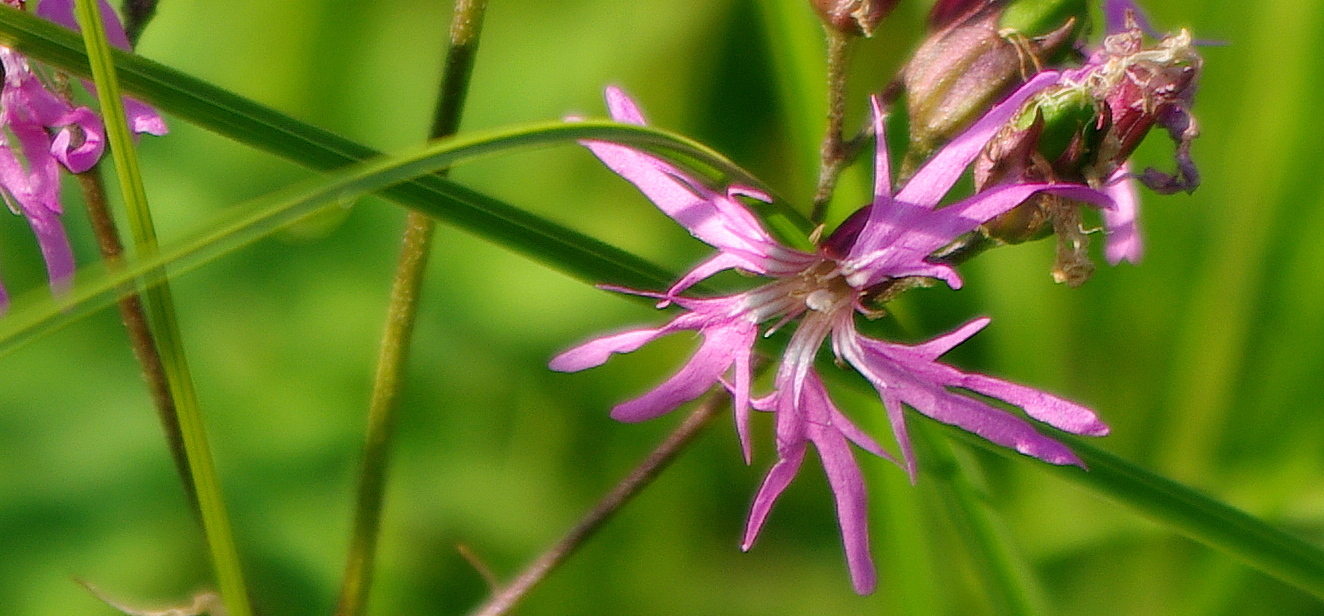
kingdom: Plantae
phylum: Tracheophyta
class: Magnoliopsida
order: Caryophyllales
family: Caryophyllaceae
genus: Silene
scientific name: Silene flos-cuculi
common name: Ragged-robin
